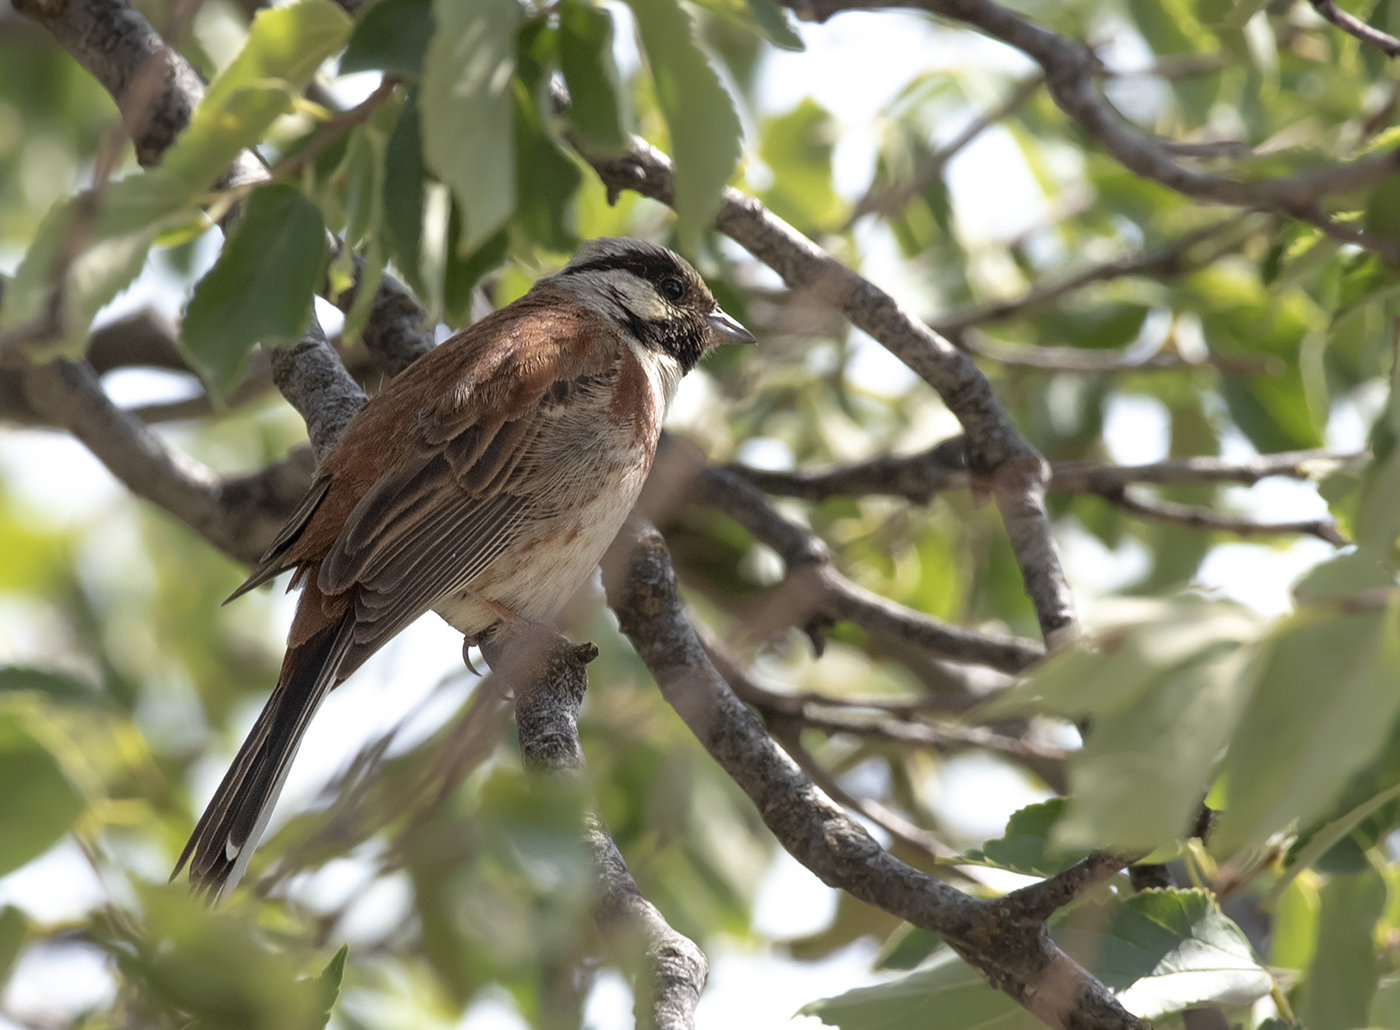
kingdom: Animalia
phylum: Chordata
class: Aves
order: Passeriformes
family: Emberizidae
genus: Emberiza
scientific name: Emberiza stewarti
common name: White-capped bunting
